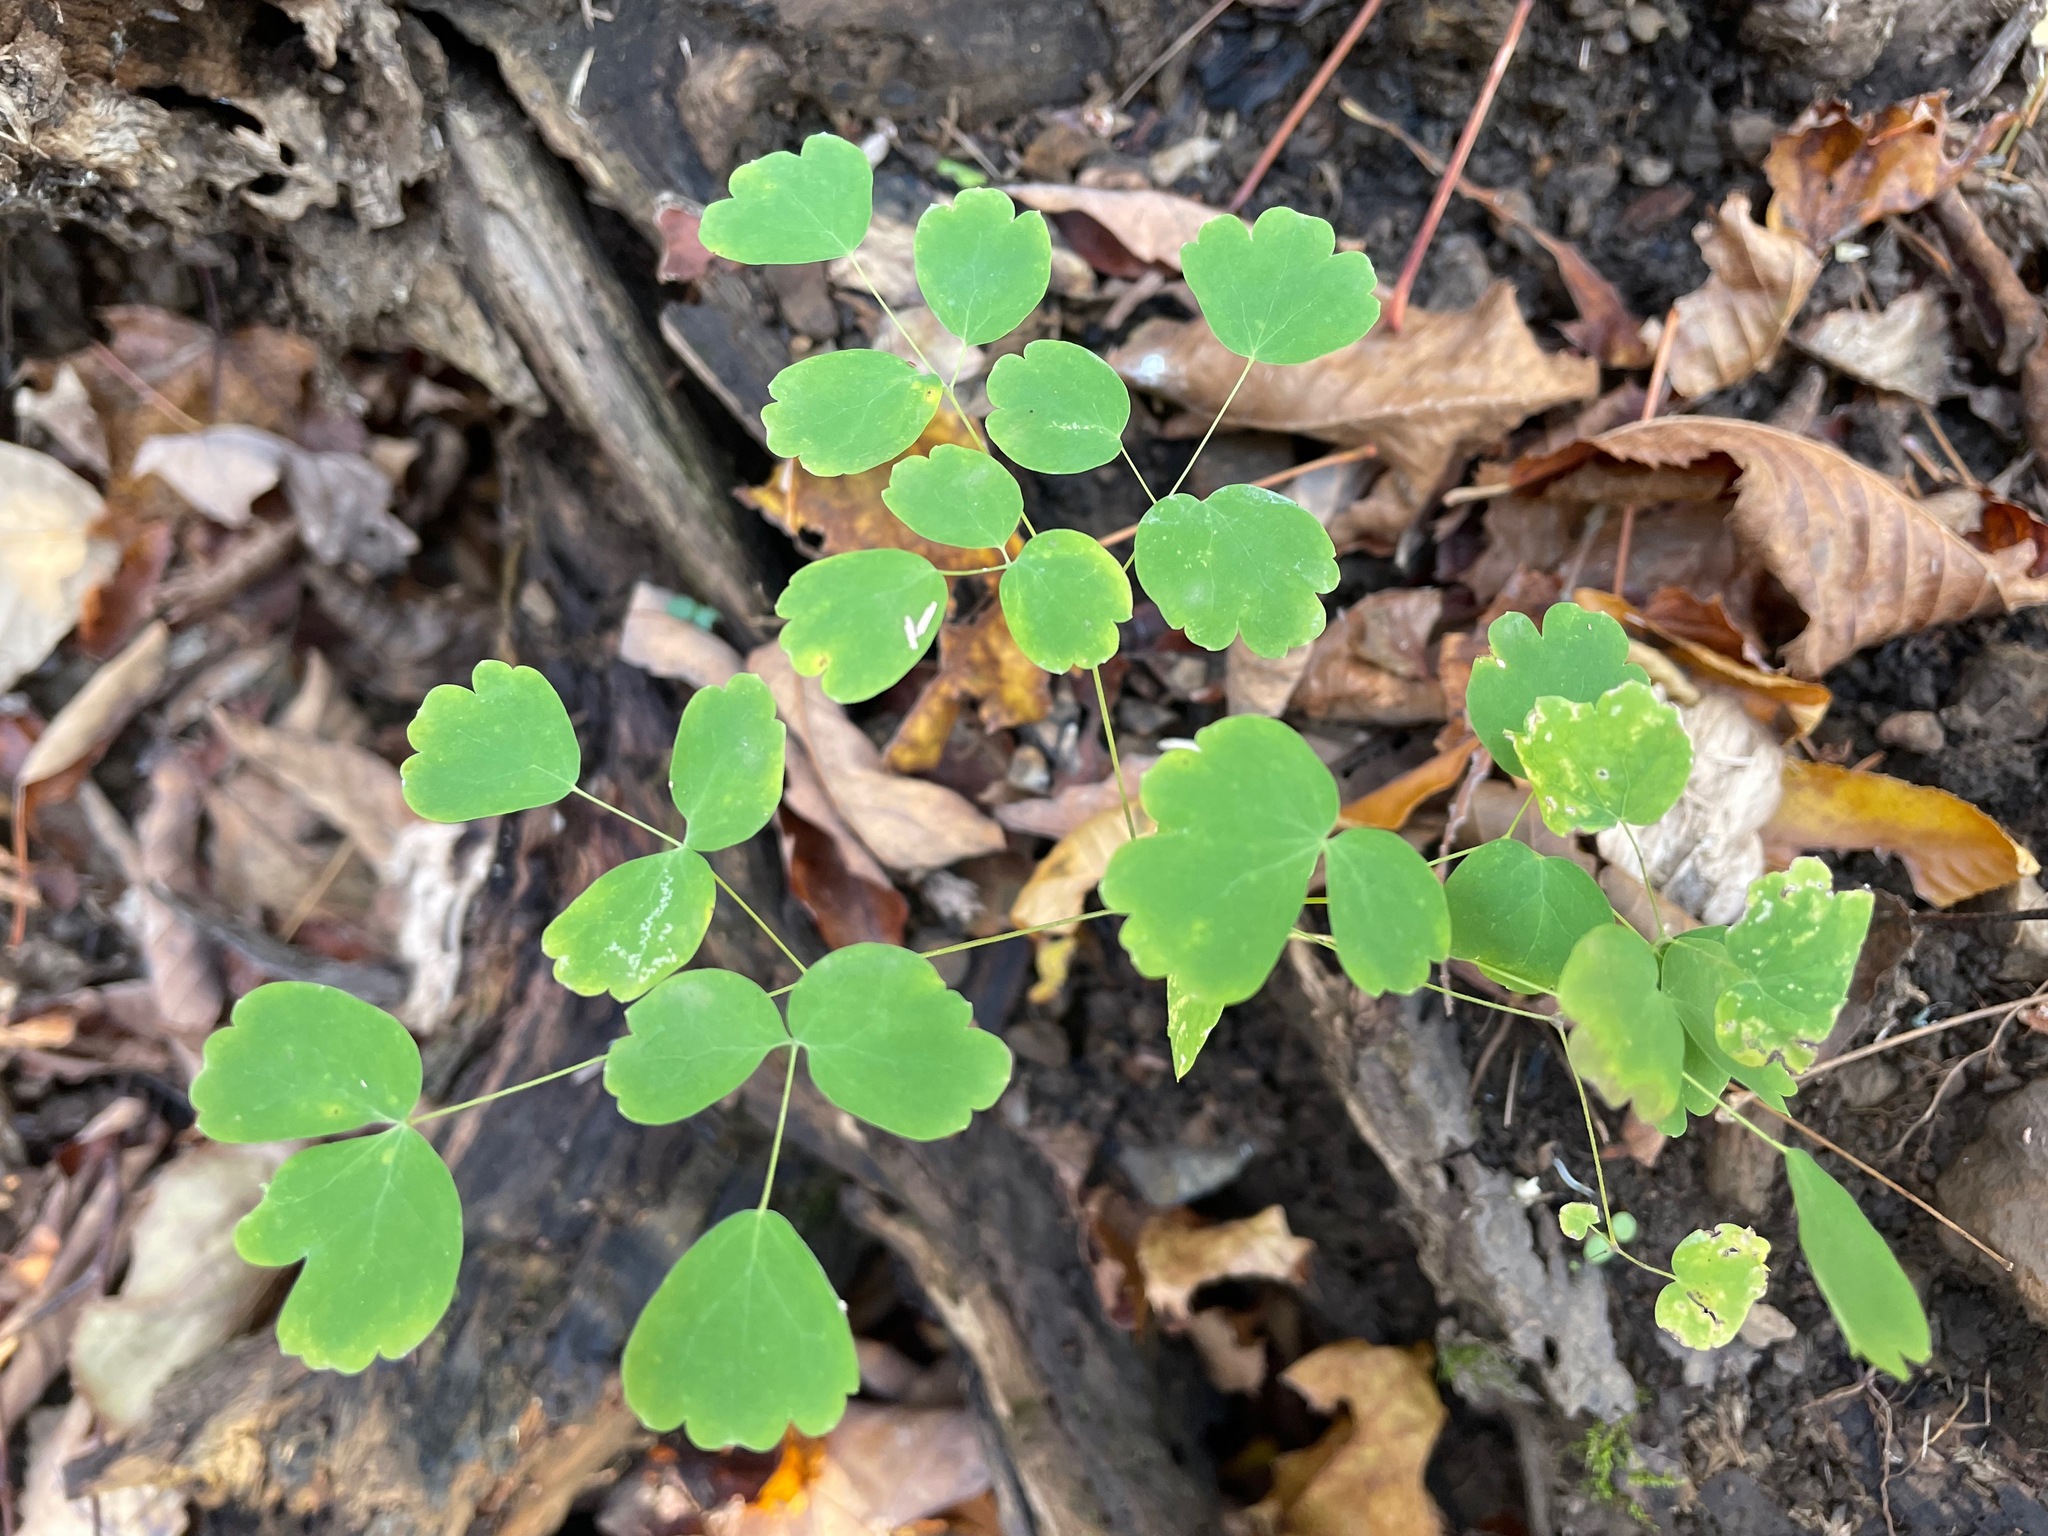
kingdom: Plantae
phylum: Tracheophyta
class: Magnoliopsida
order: Ranunculales
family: Ranunculaceae
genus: Thalictrum
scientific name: Thalictrum dioicum
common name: Early meadow-rue
